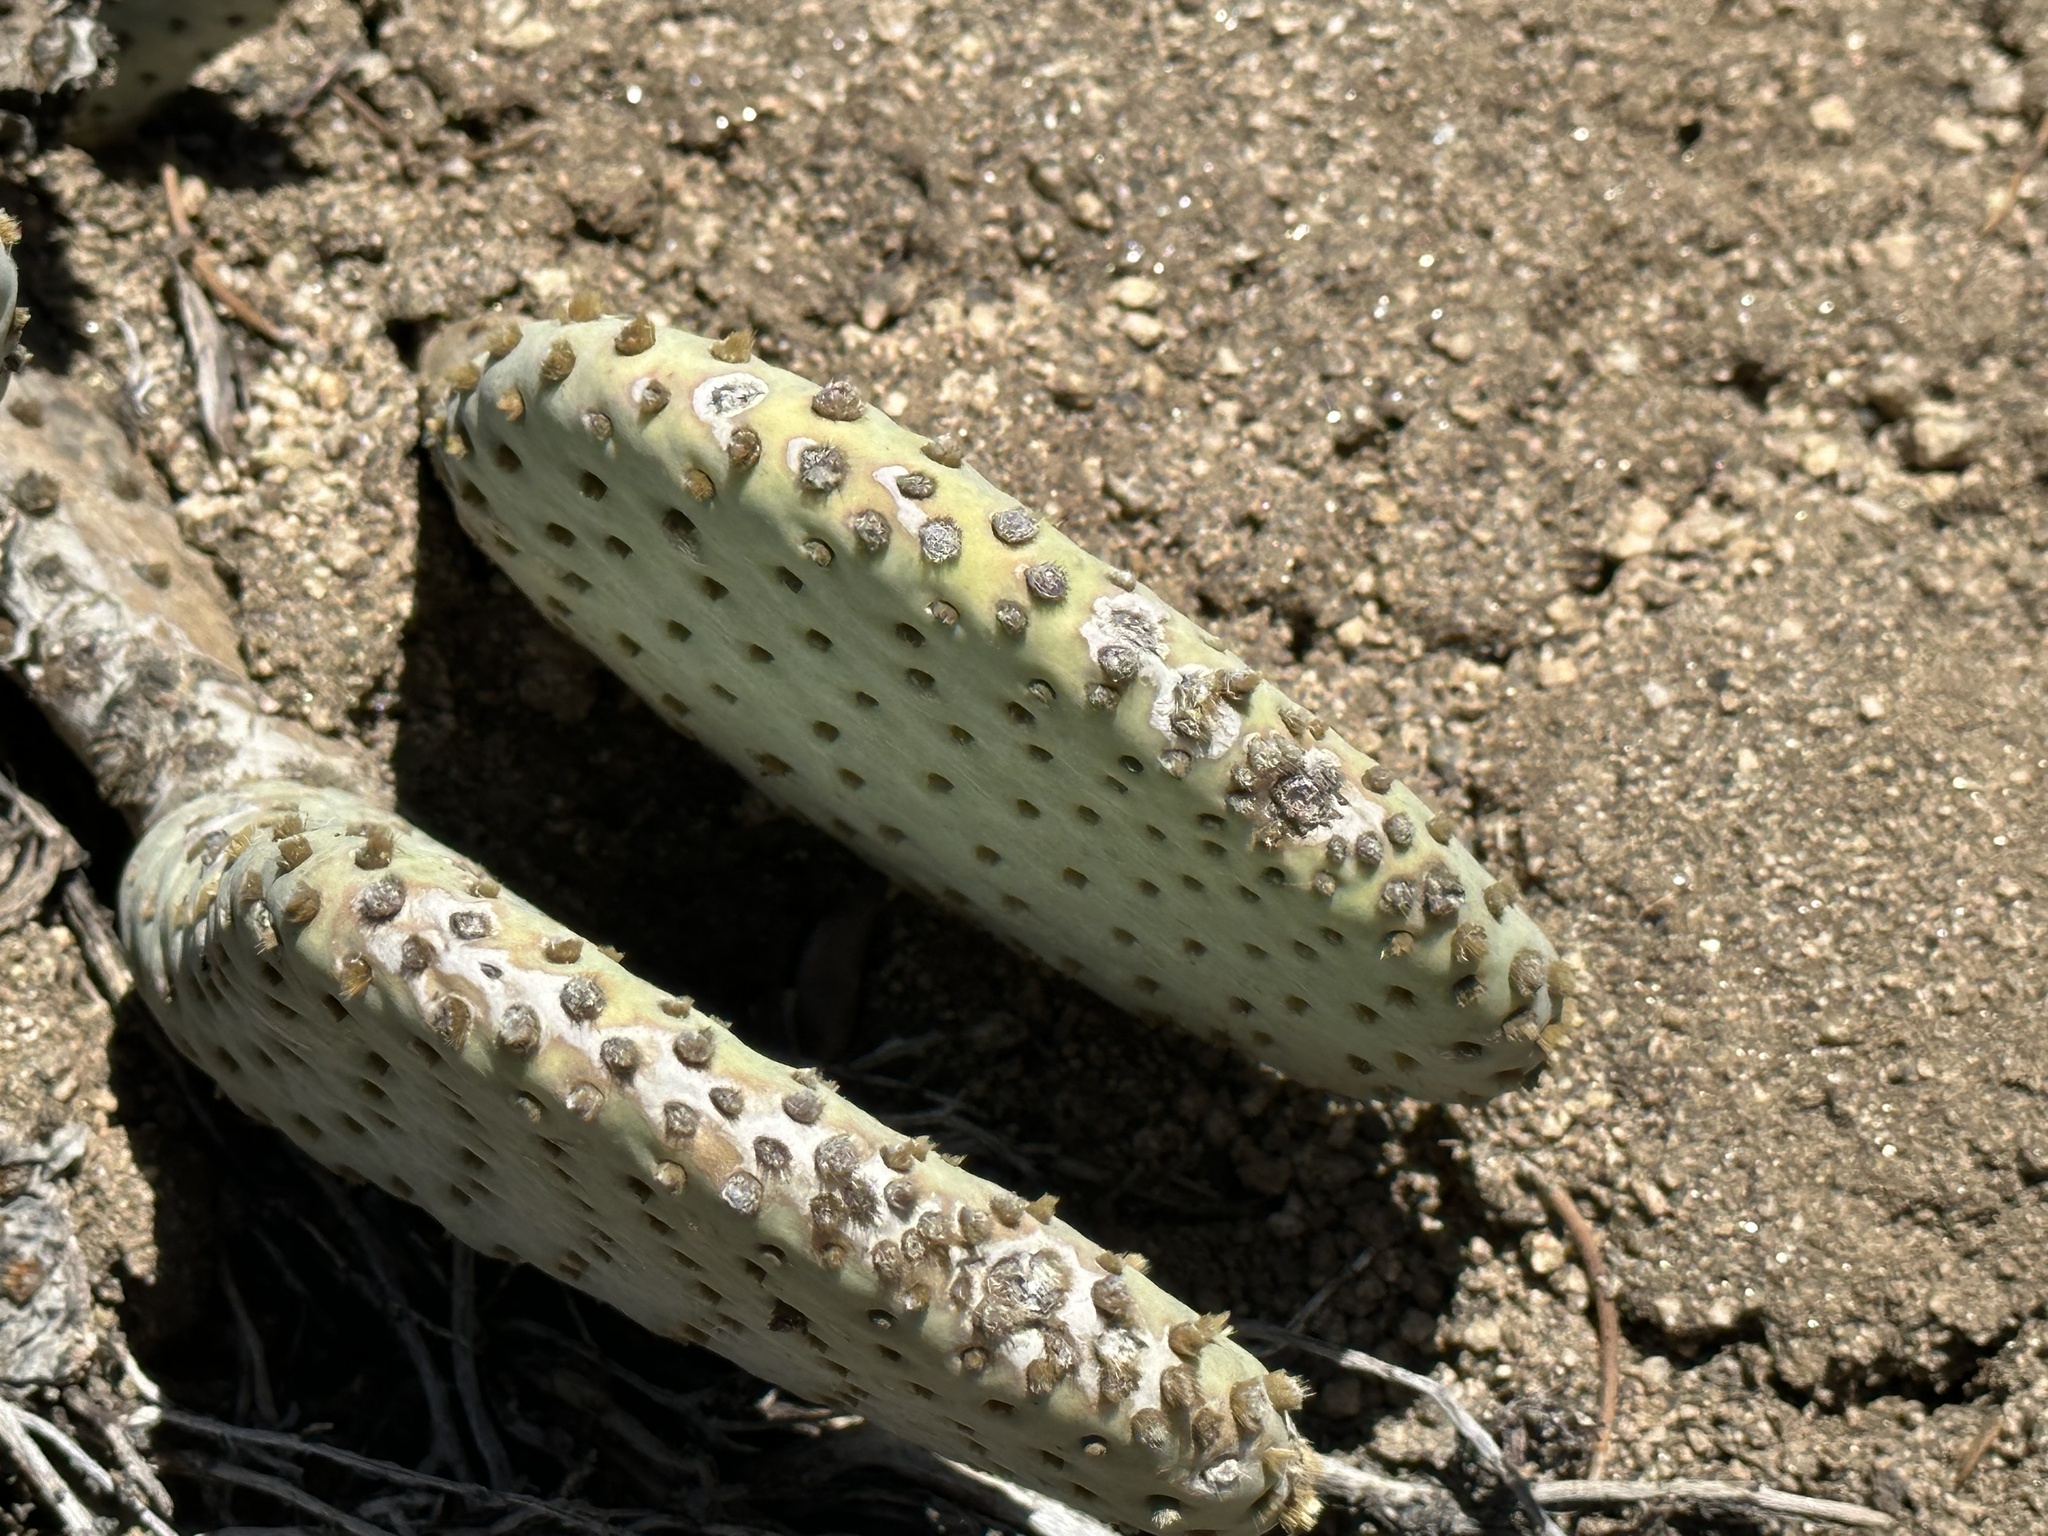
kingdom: Plantae
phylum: Tracheophyta
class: Magnoliopsida
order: Caryophyllales
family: Cactaceae
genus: Opuntia
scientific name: Opuntia basilaris
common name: Beavertail prickly-pear
